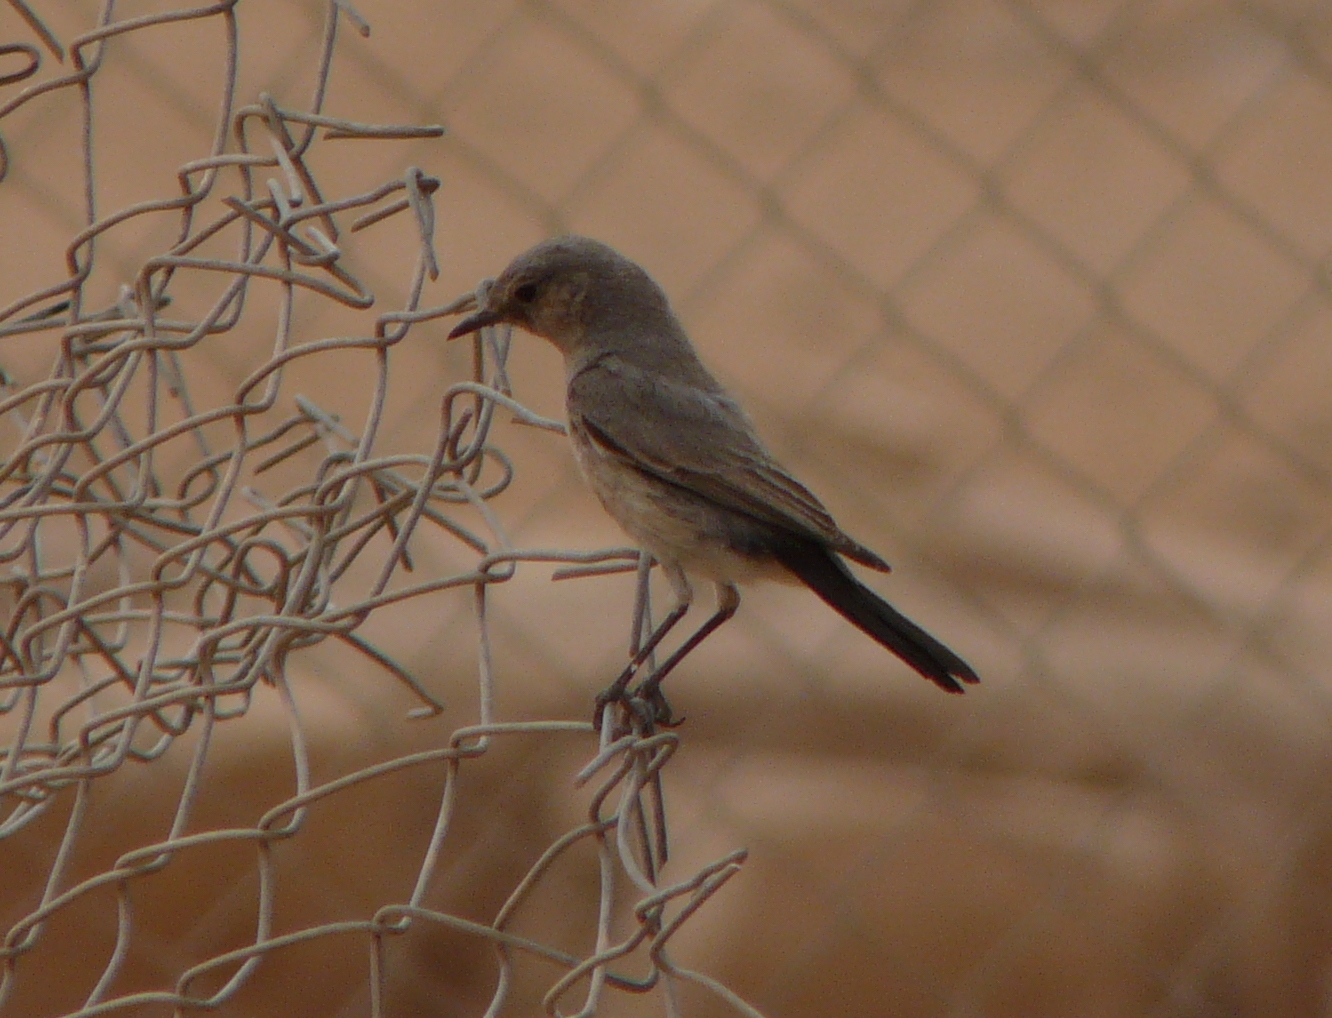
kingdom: Animalia
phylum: Chordata
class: Aves
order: Passeriformes
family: Muscicapidae
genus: Oenanthe
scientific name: Oenanthe melanura
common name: Blackstart
